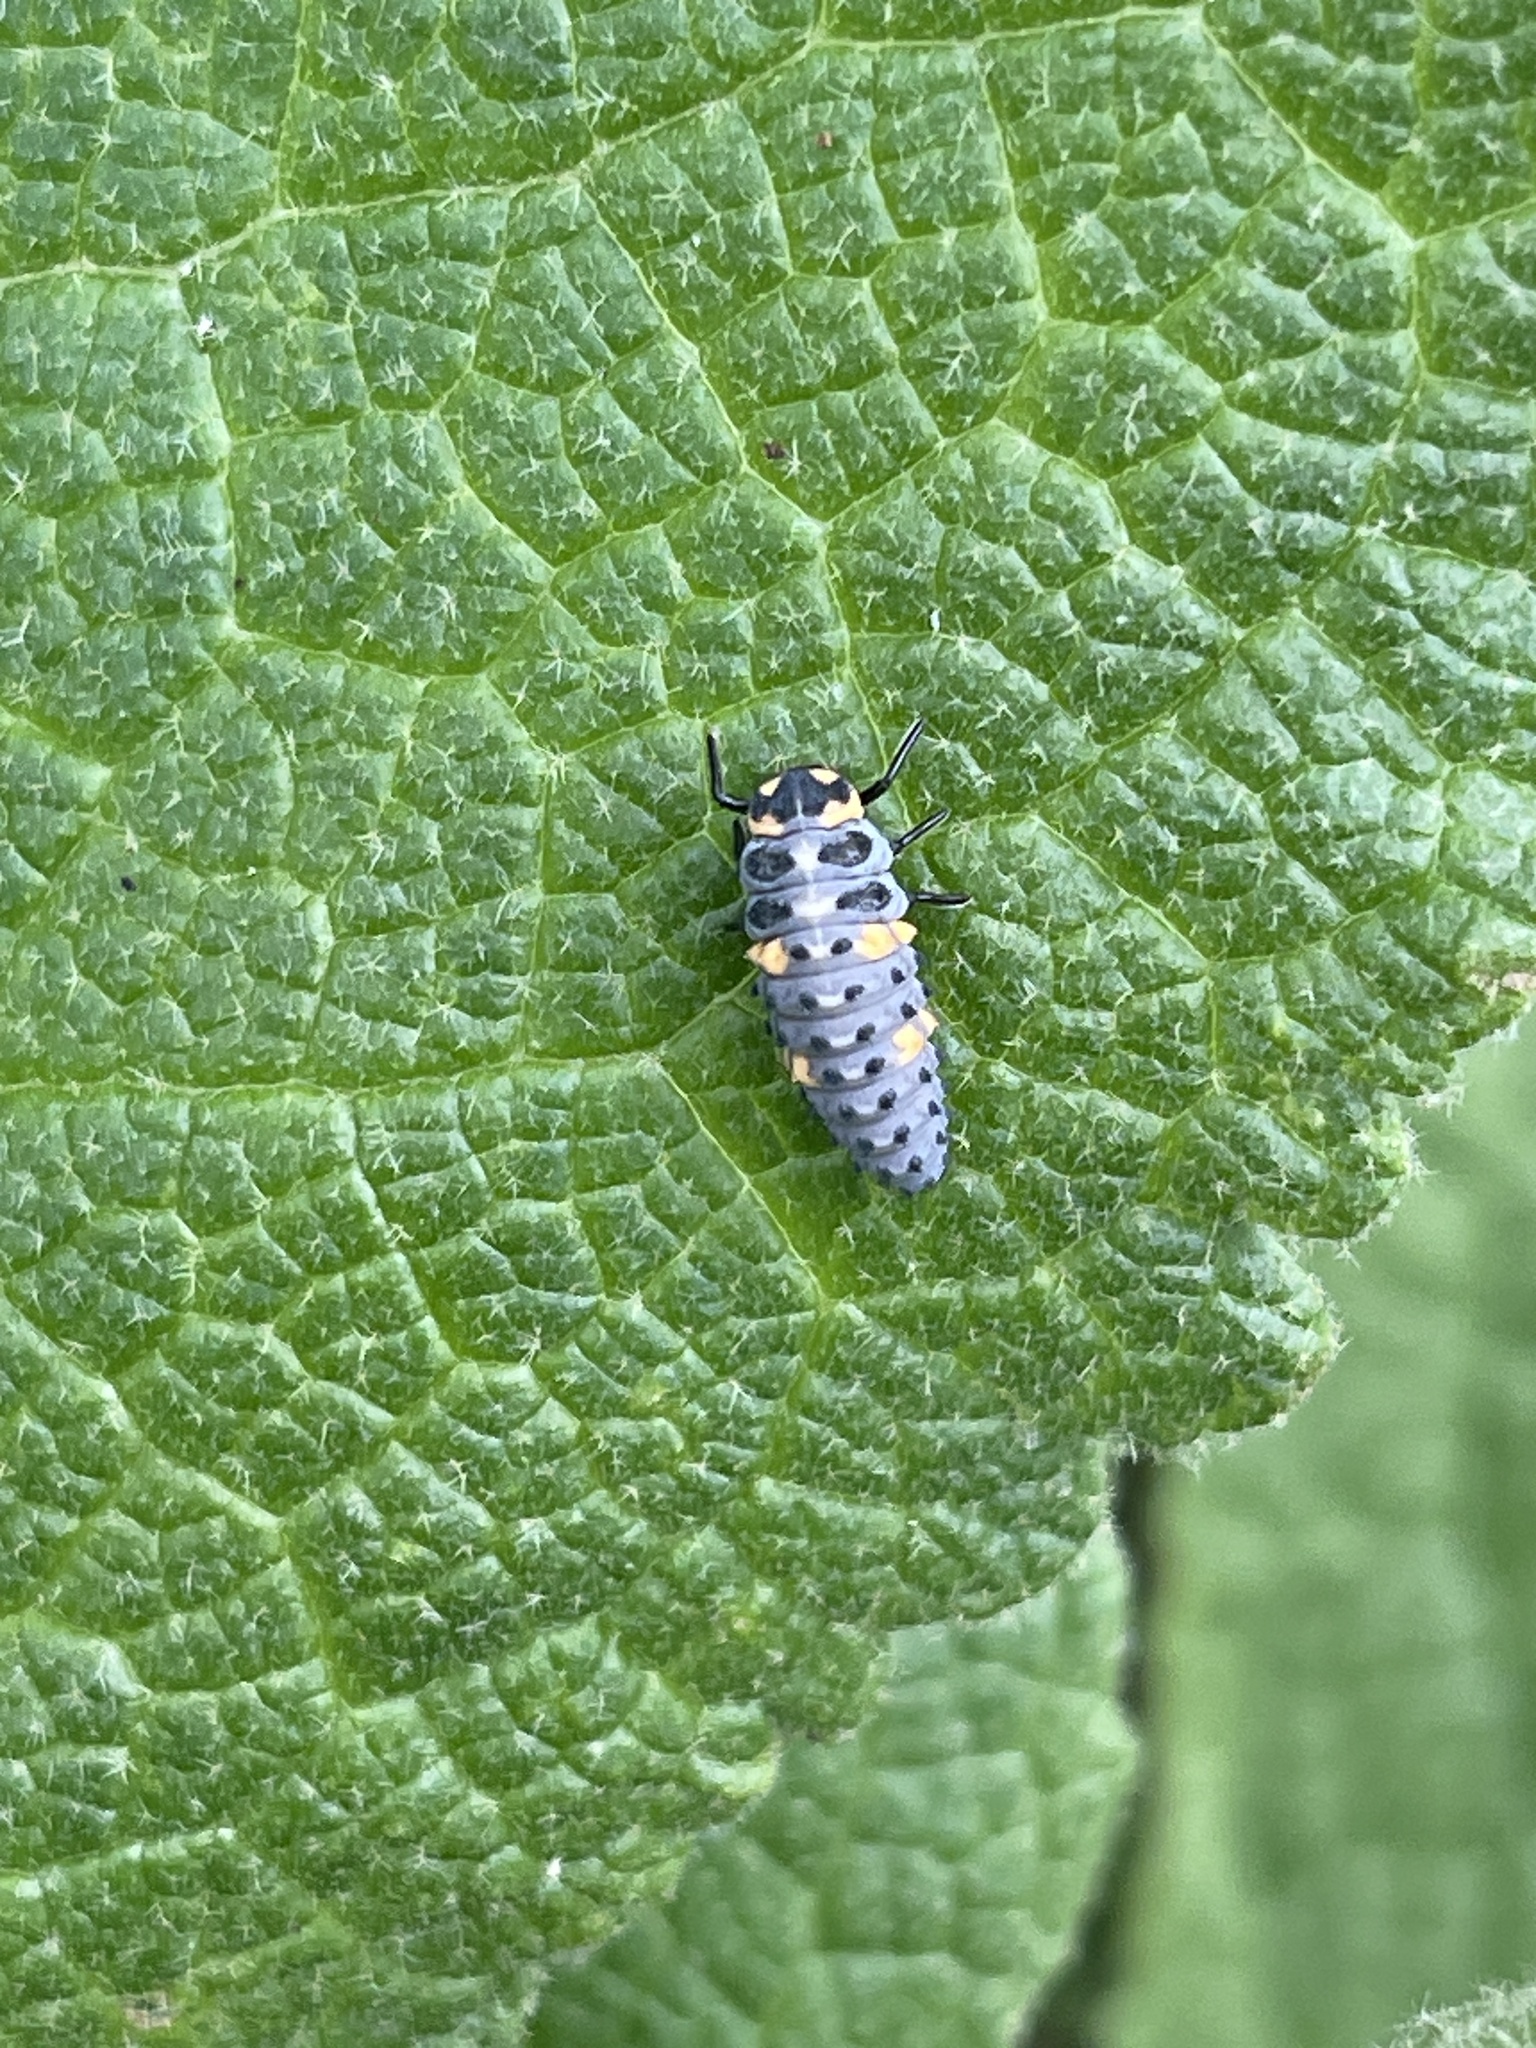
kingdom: Animalia
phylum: Arthropoda
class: Insecta
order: Coleoptera
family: Coccinellidae
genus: Coccinella
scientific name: Coccinella septempunctata
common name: Sevenspotted lady beetle
